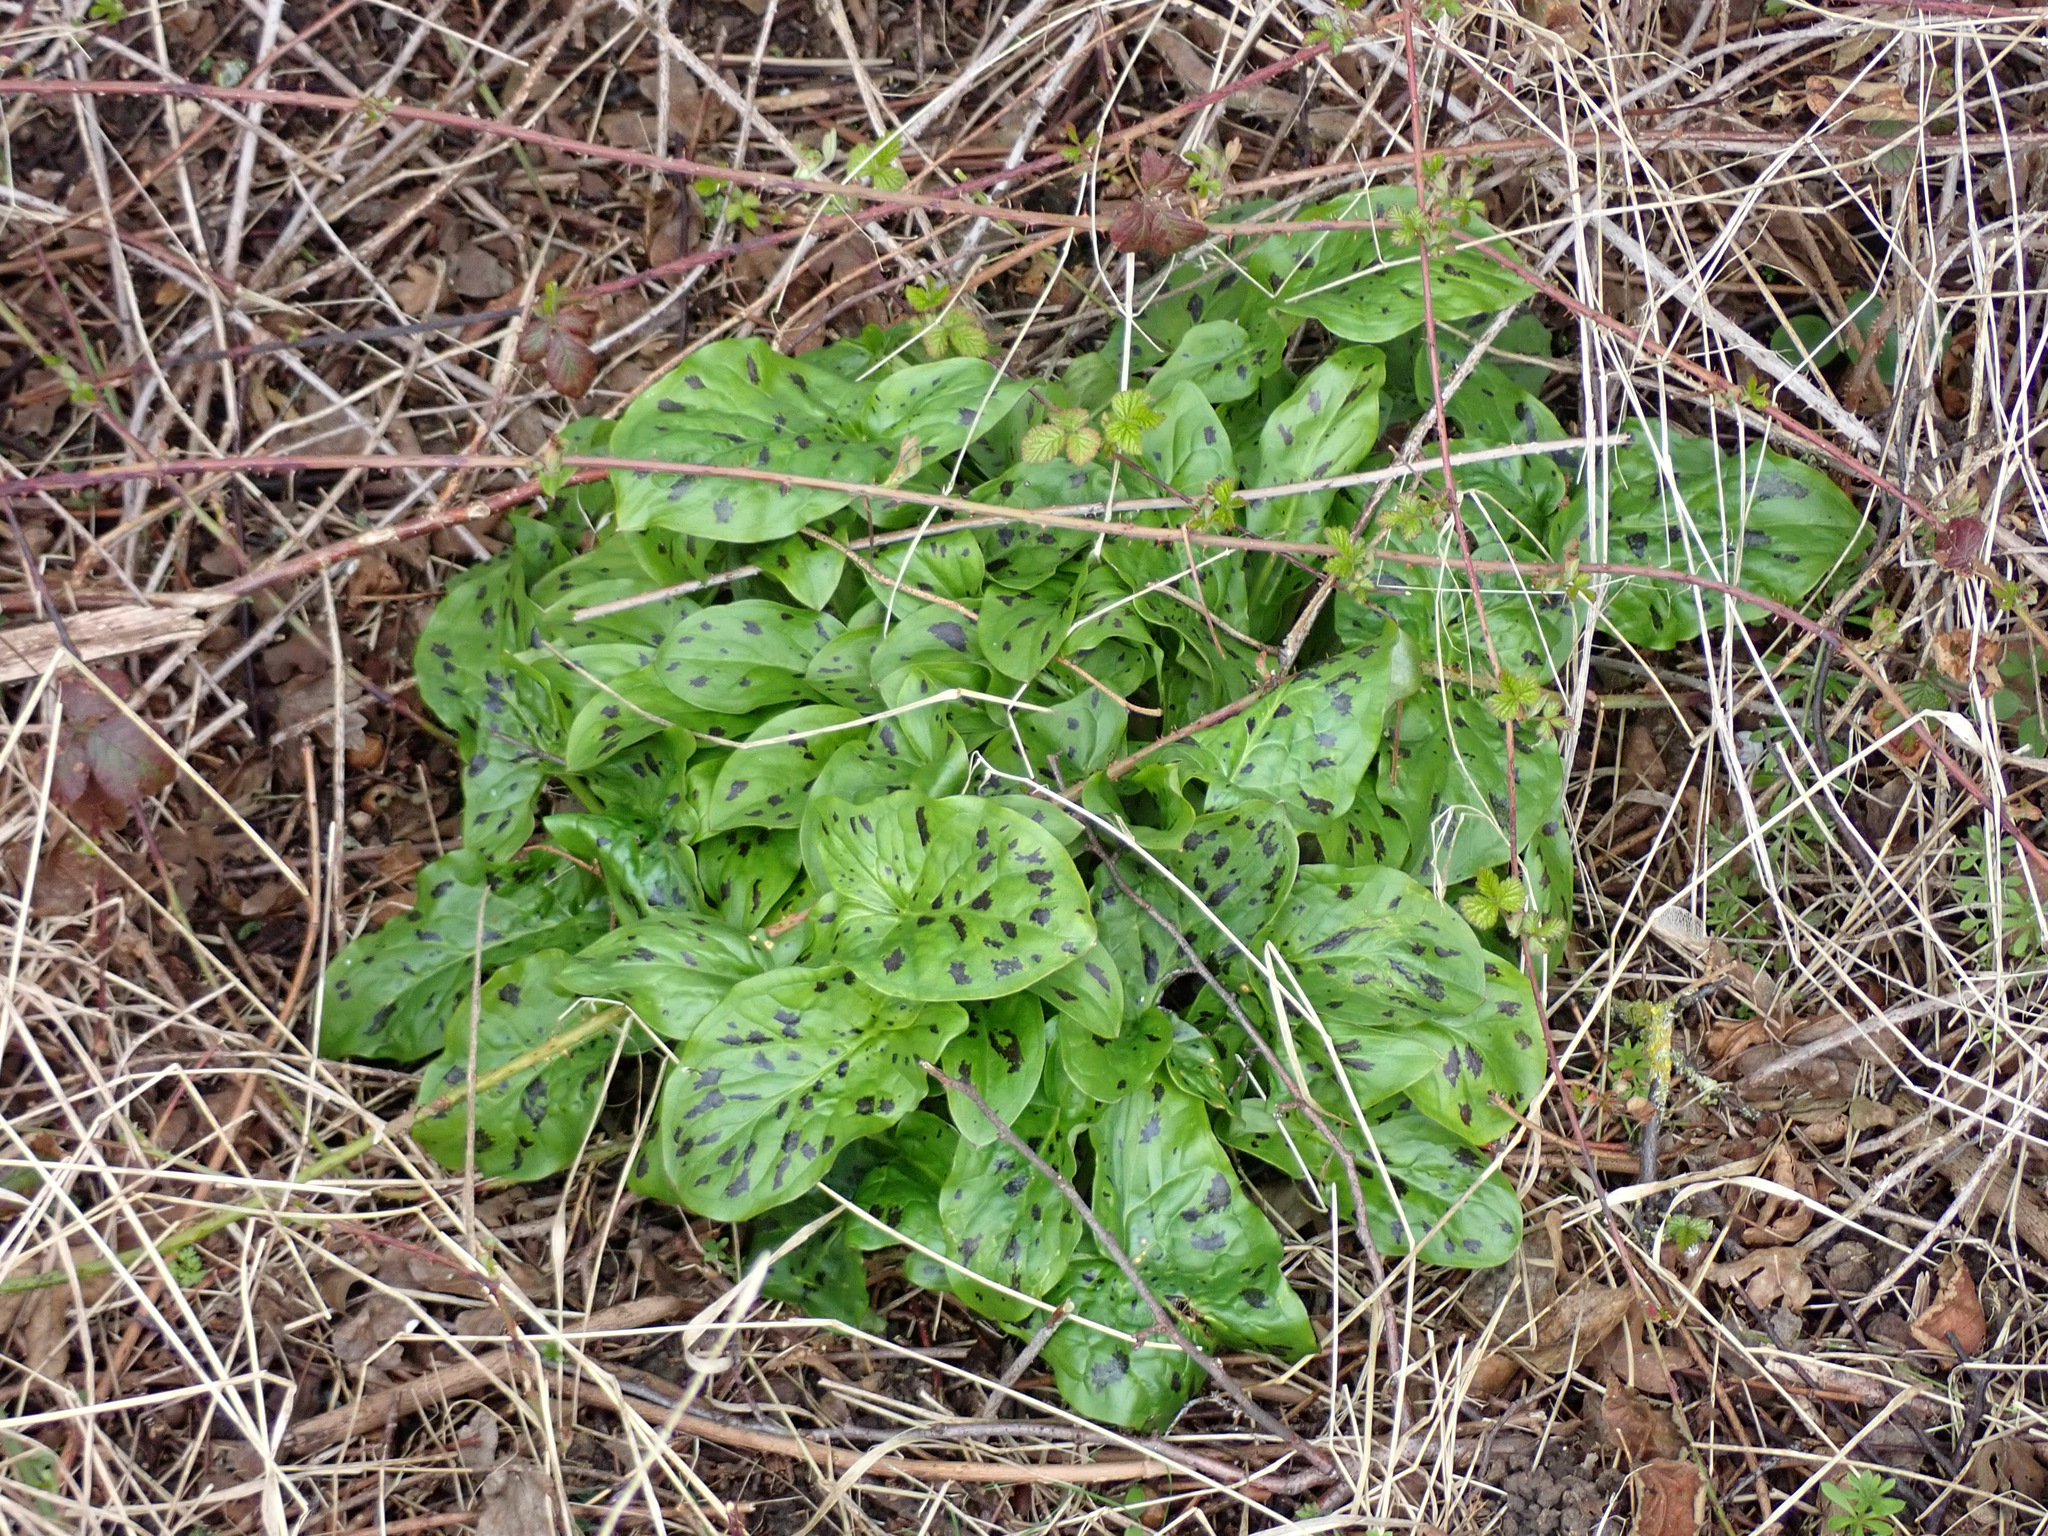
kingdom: Plantae
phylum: Tracheophyta
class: Liliopsida
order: Alismatales
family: Araceae
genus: Arum
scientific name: Arum maculatum
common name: Lords-and-ladies
